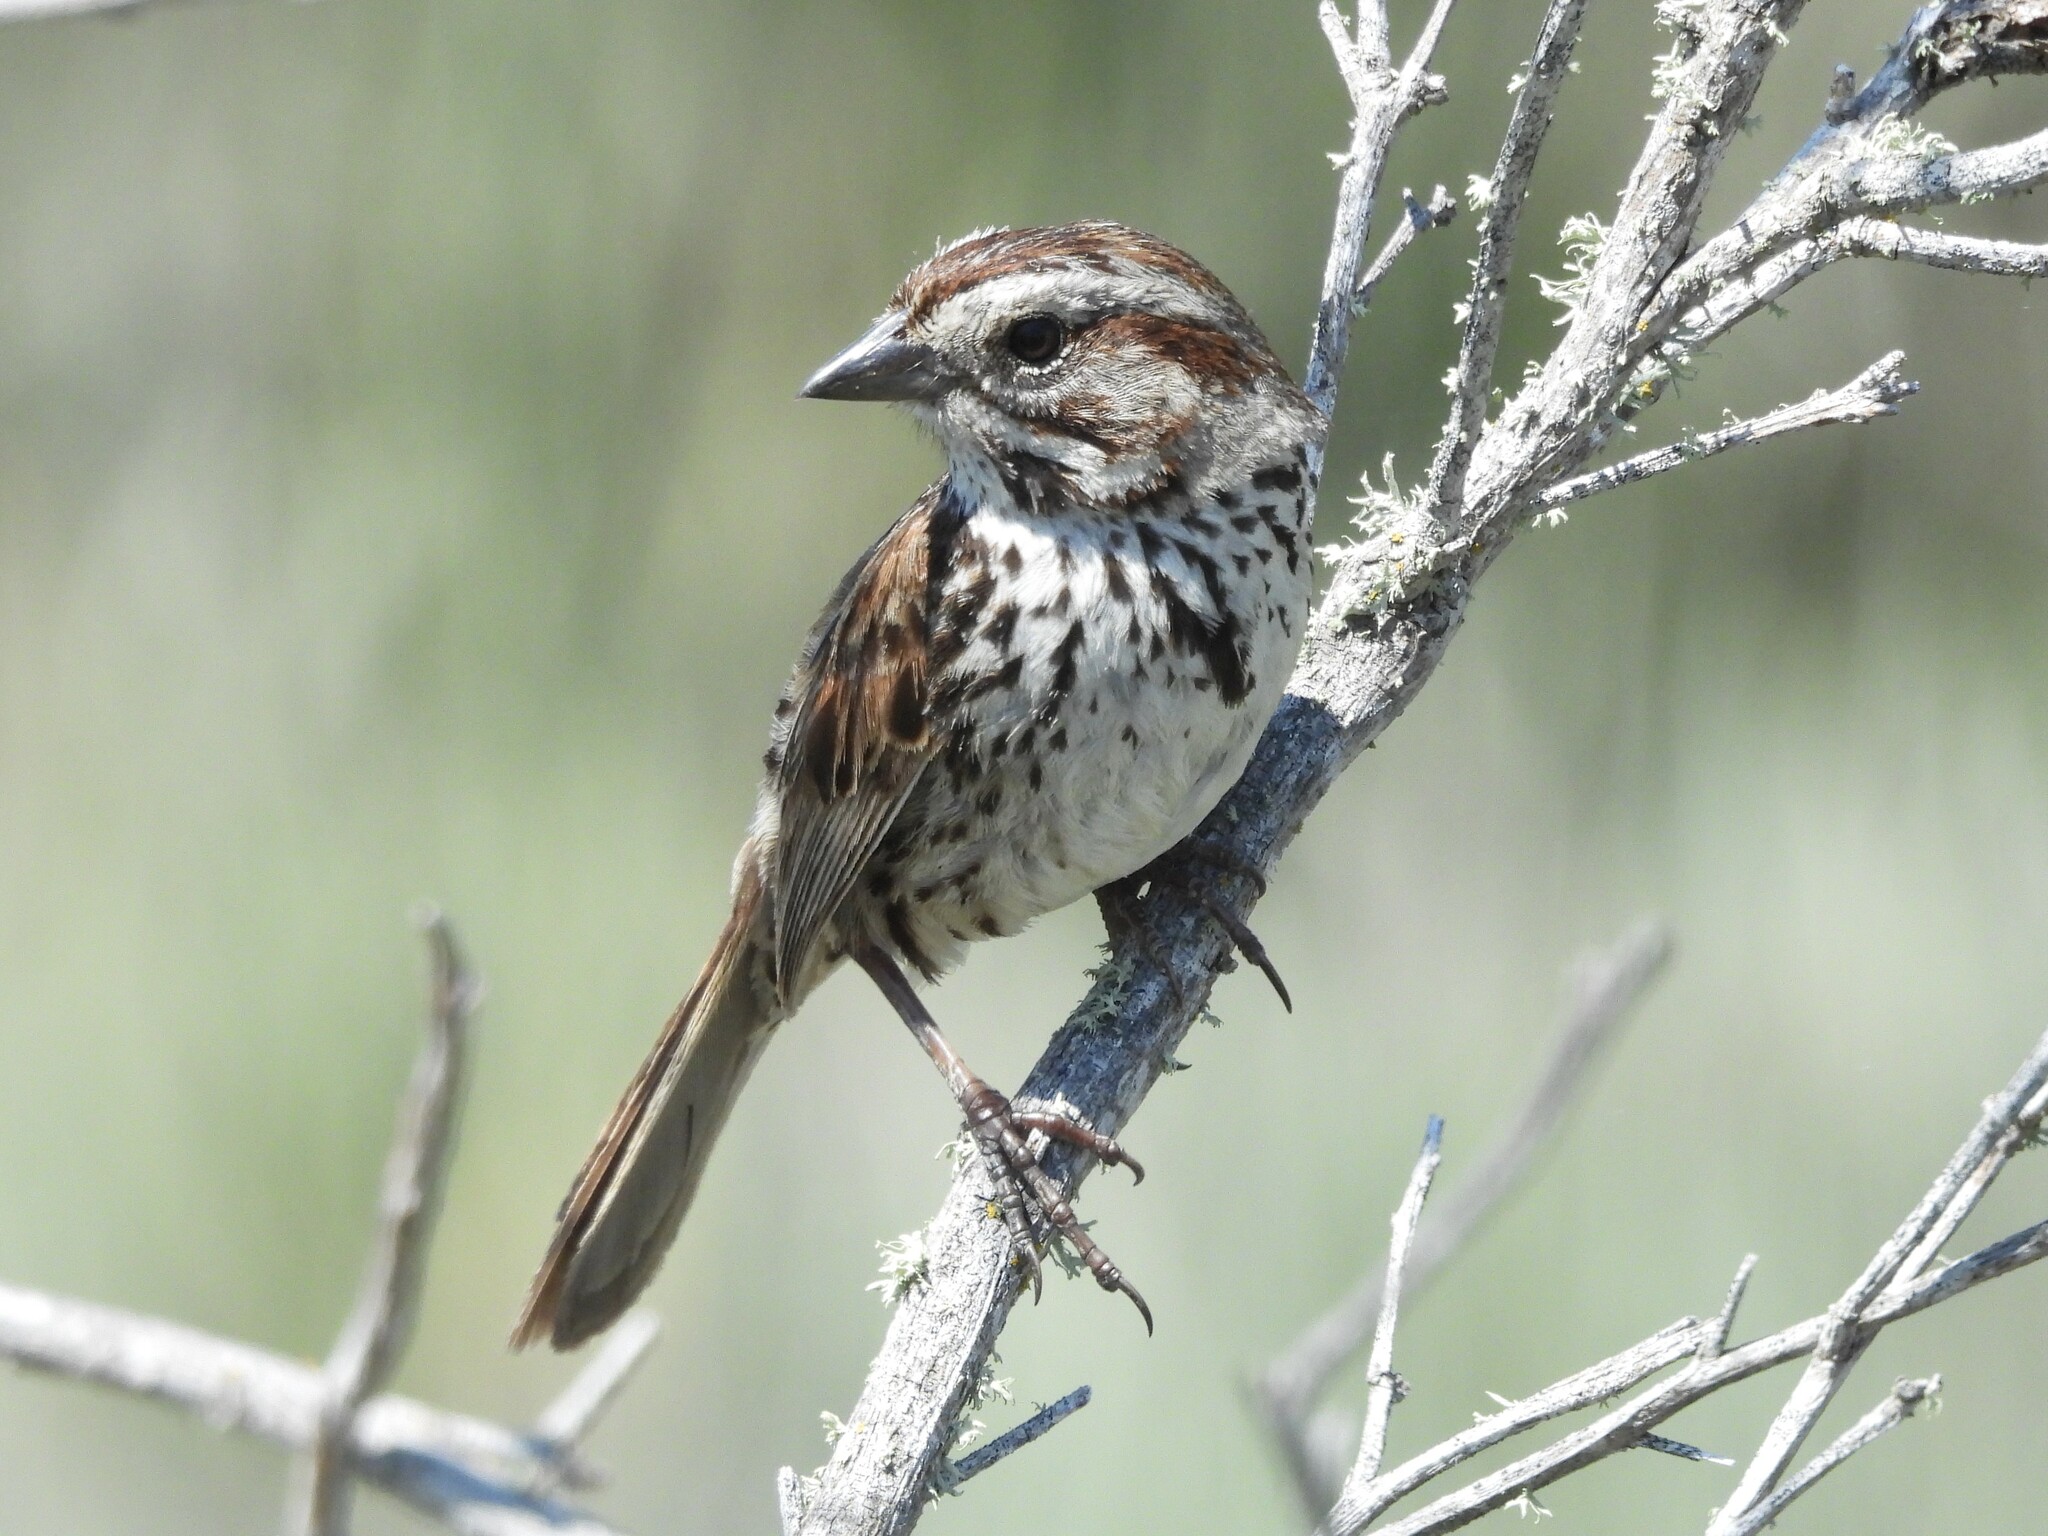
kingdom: Animalia
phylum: Chordata
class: Aves
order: Passeriformes
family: Passerellidae
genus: Melospiza
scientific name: Melospiza melodia
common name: Song sparrow
